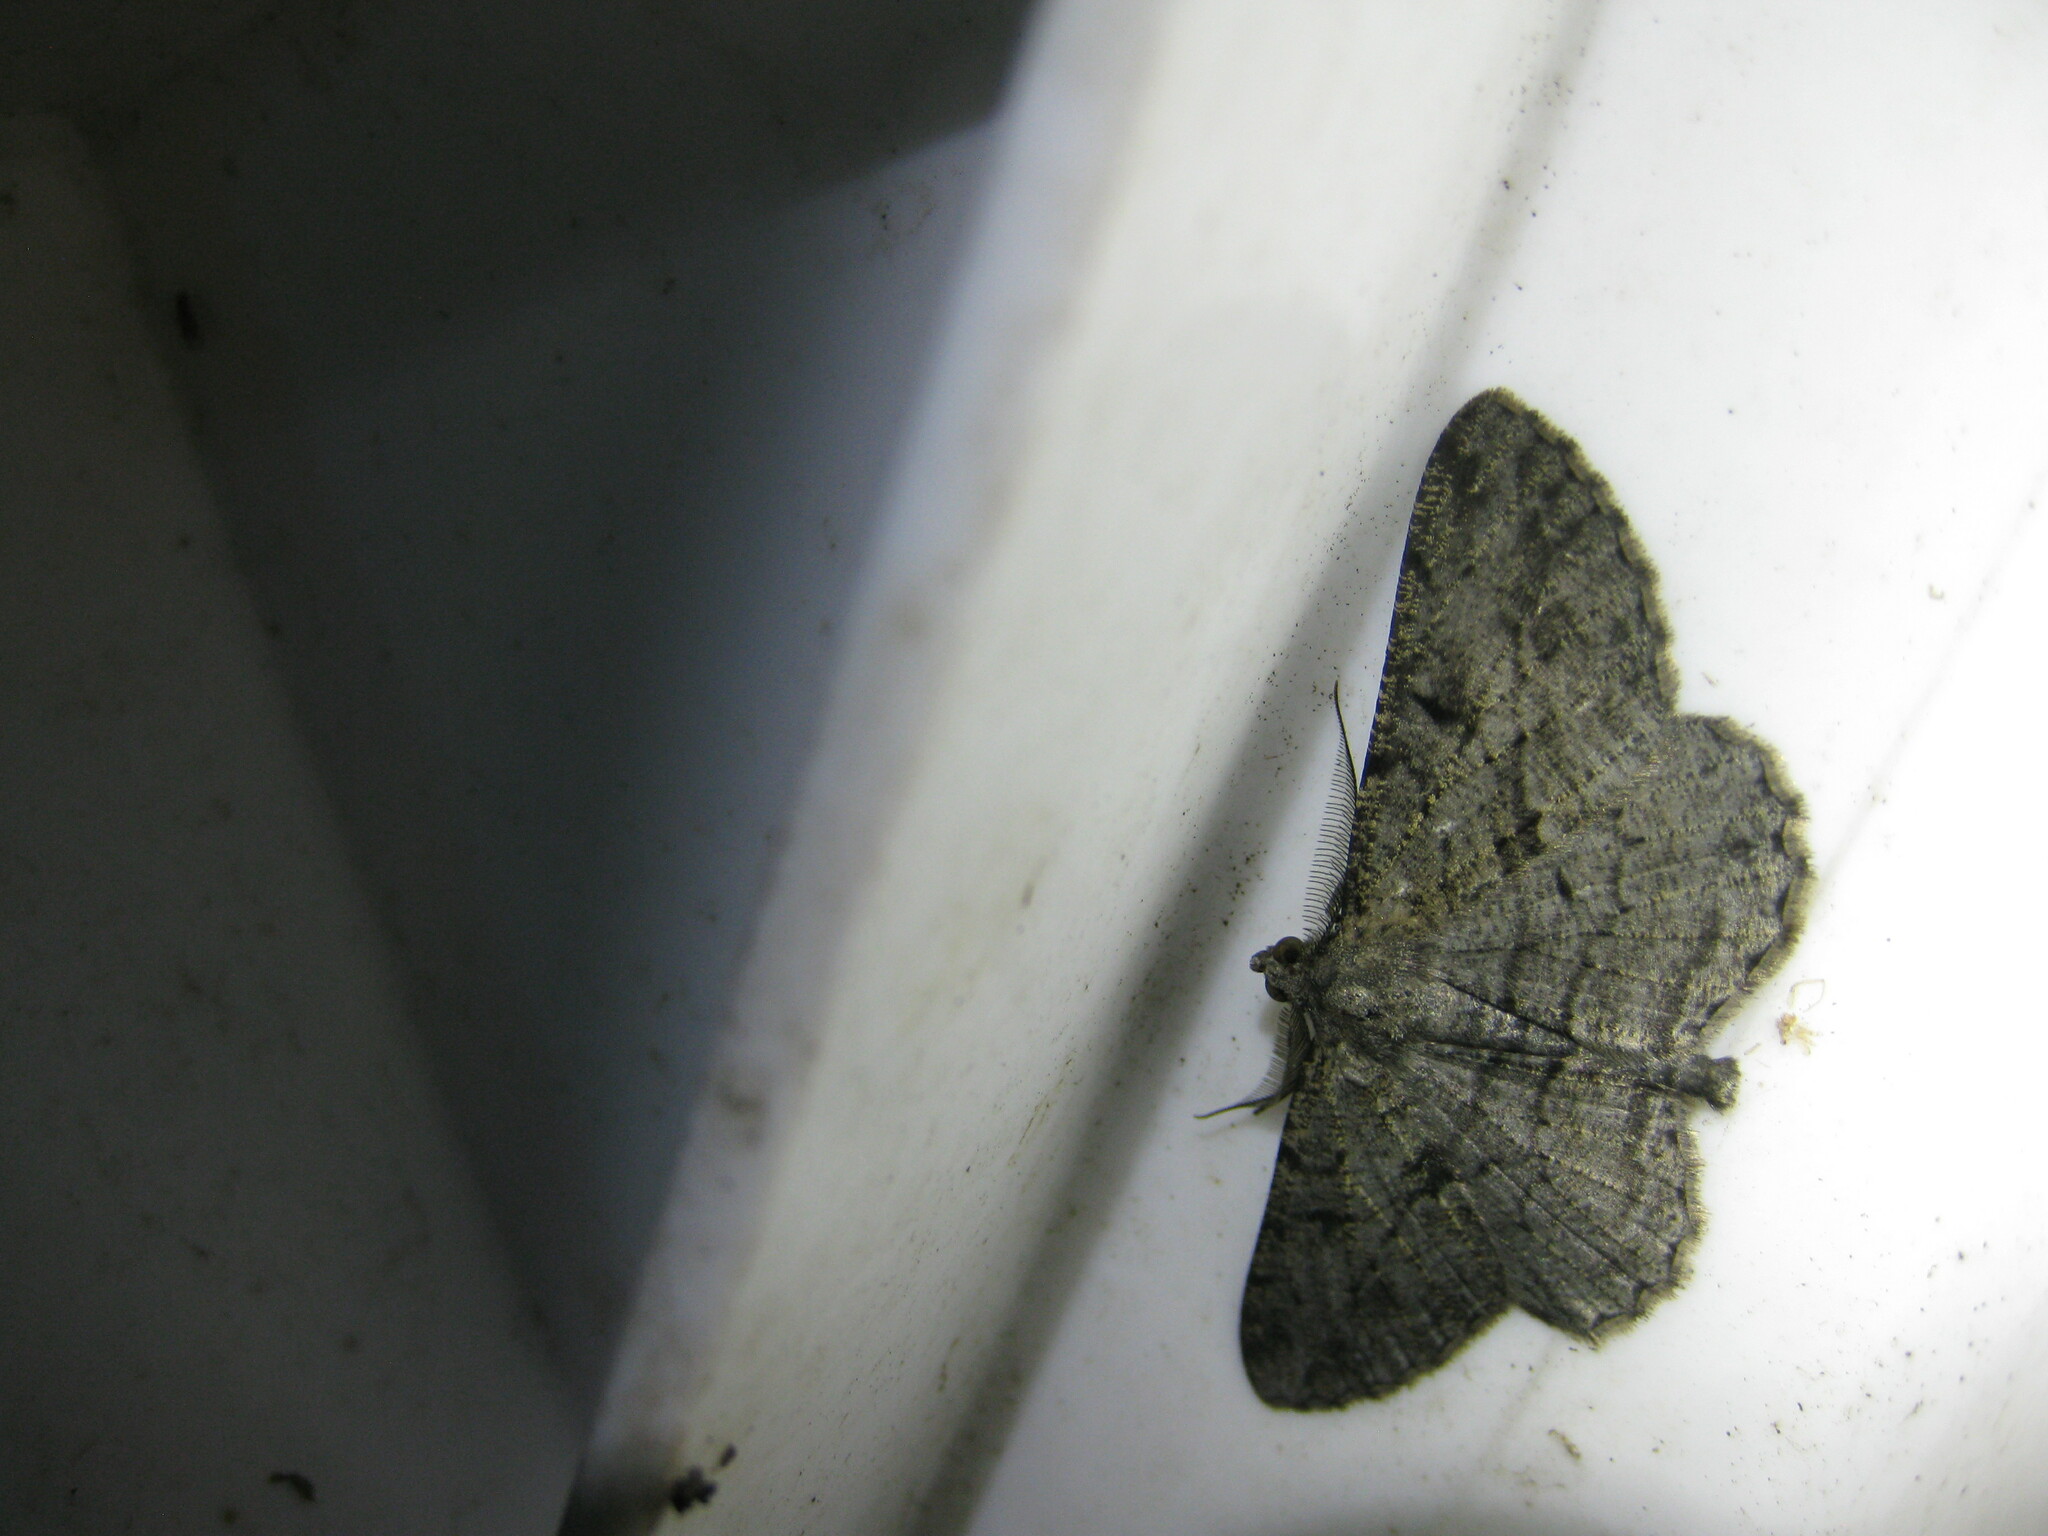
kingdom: Animalia
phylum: Arthropoda
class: Insecta
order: Lepidoptera
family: Geometridae
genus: Peribatodes
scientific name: Peribatodes rhomboidaria
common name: Willow beauty
